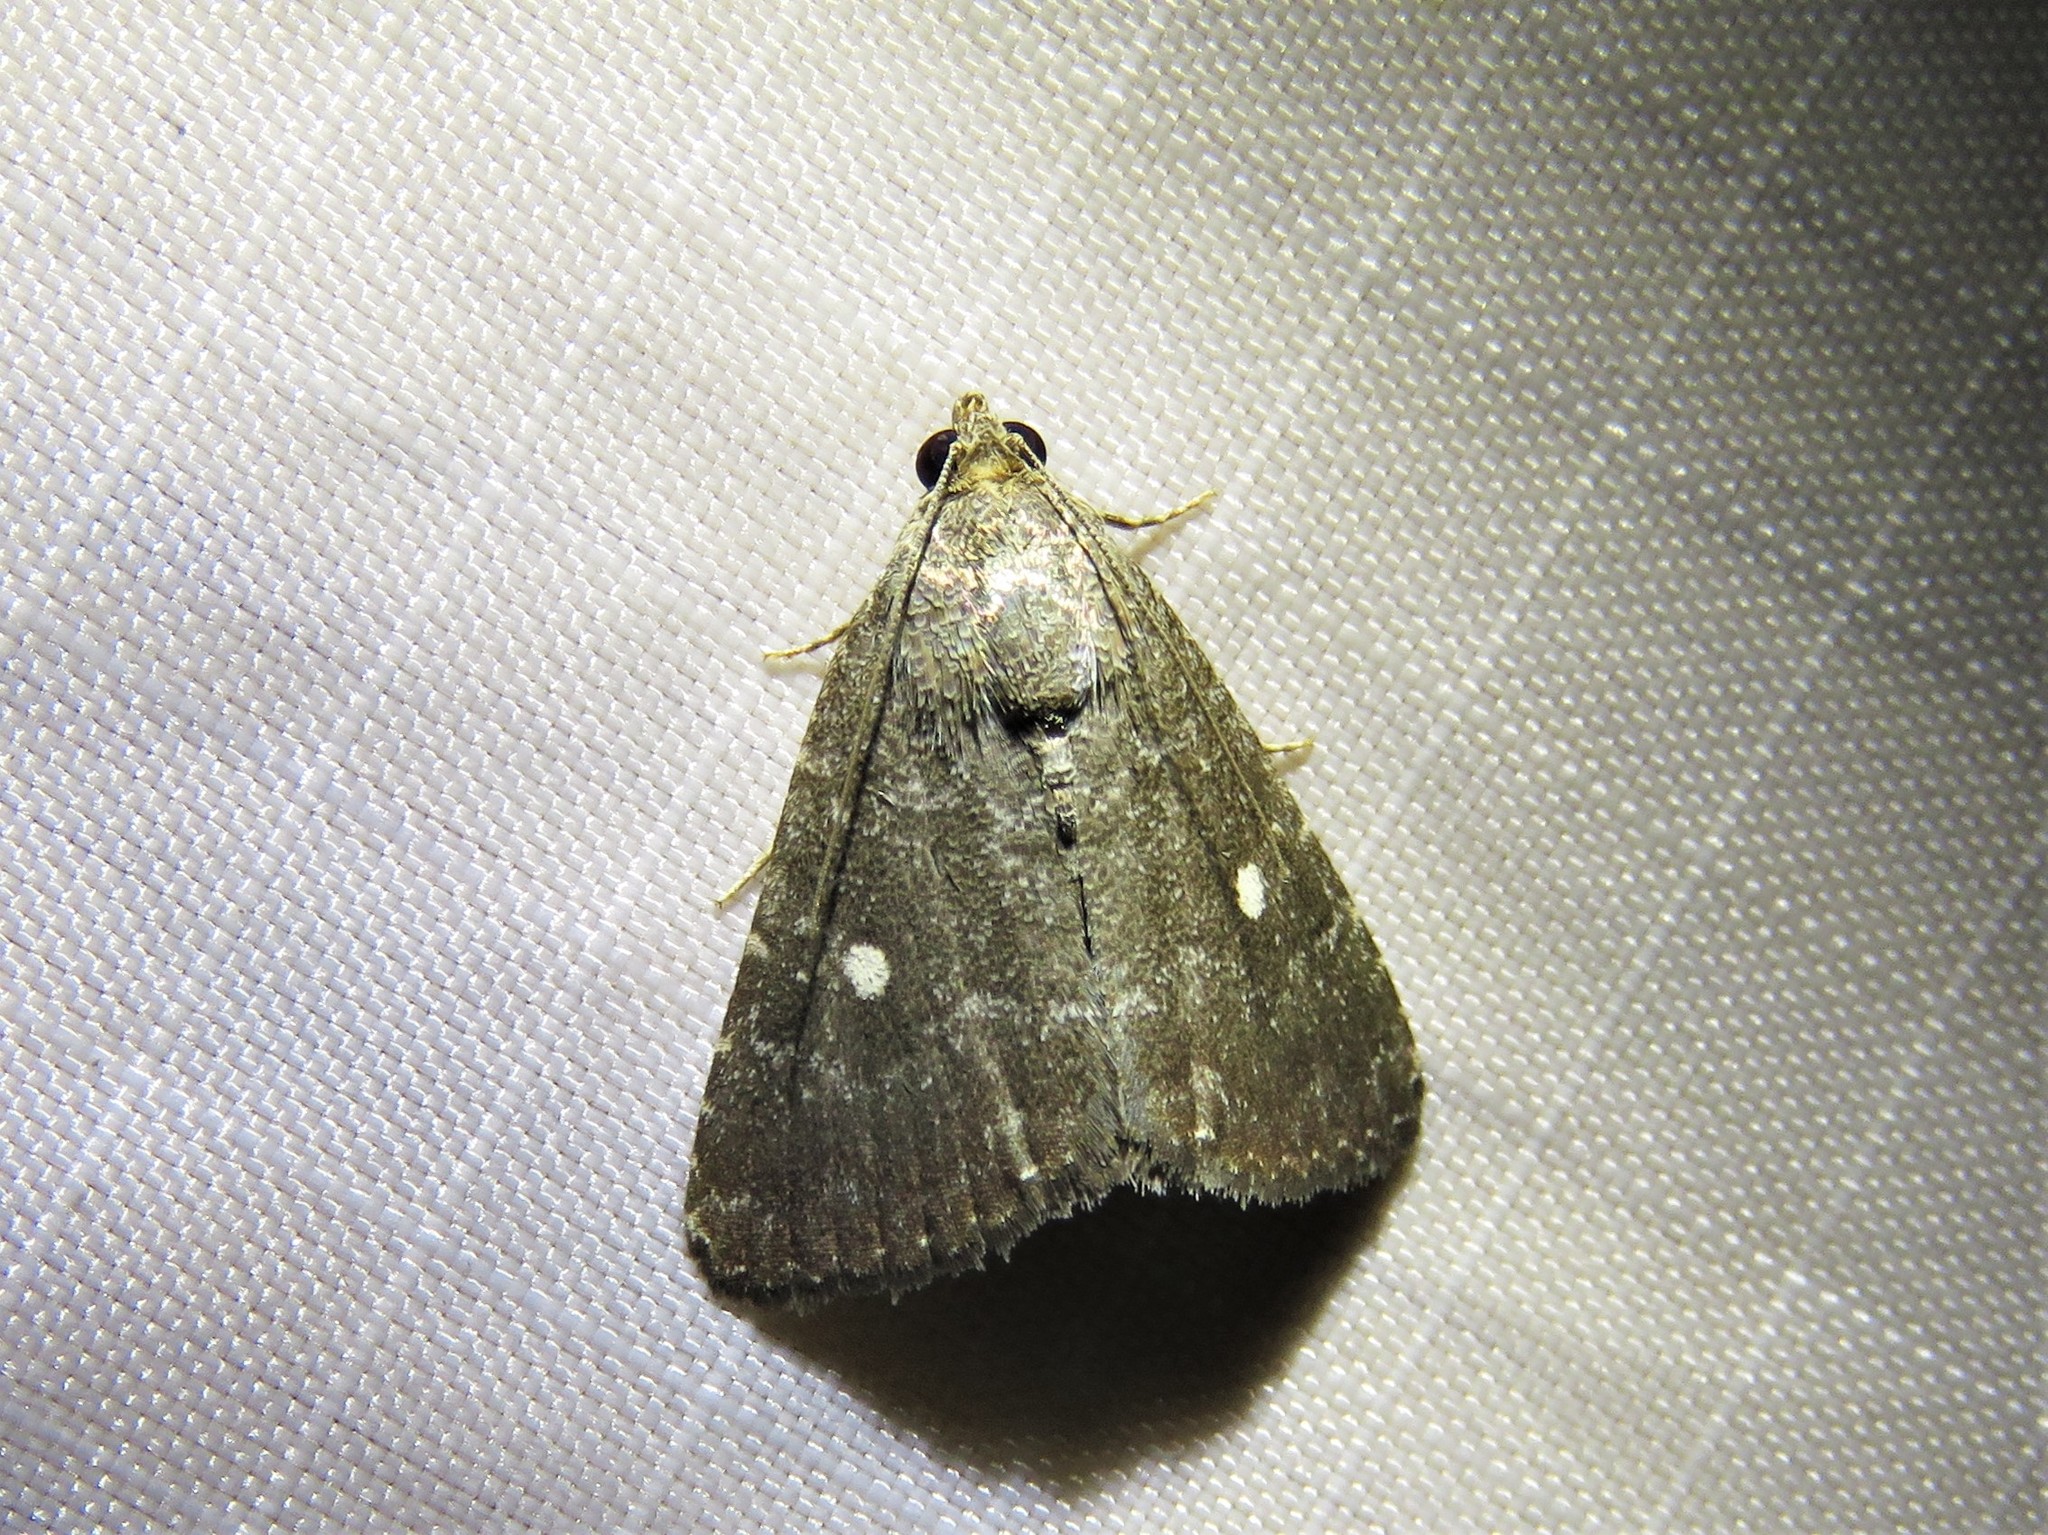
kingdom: Animalia
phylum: Arthropoda
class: Insecta
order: Lepidoptera
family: Noctuidae
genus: Amyna
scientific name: Amyna stricta
